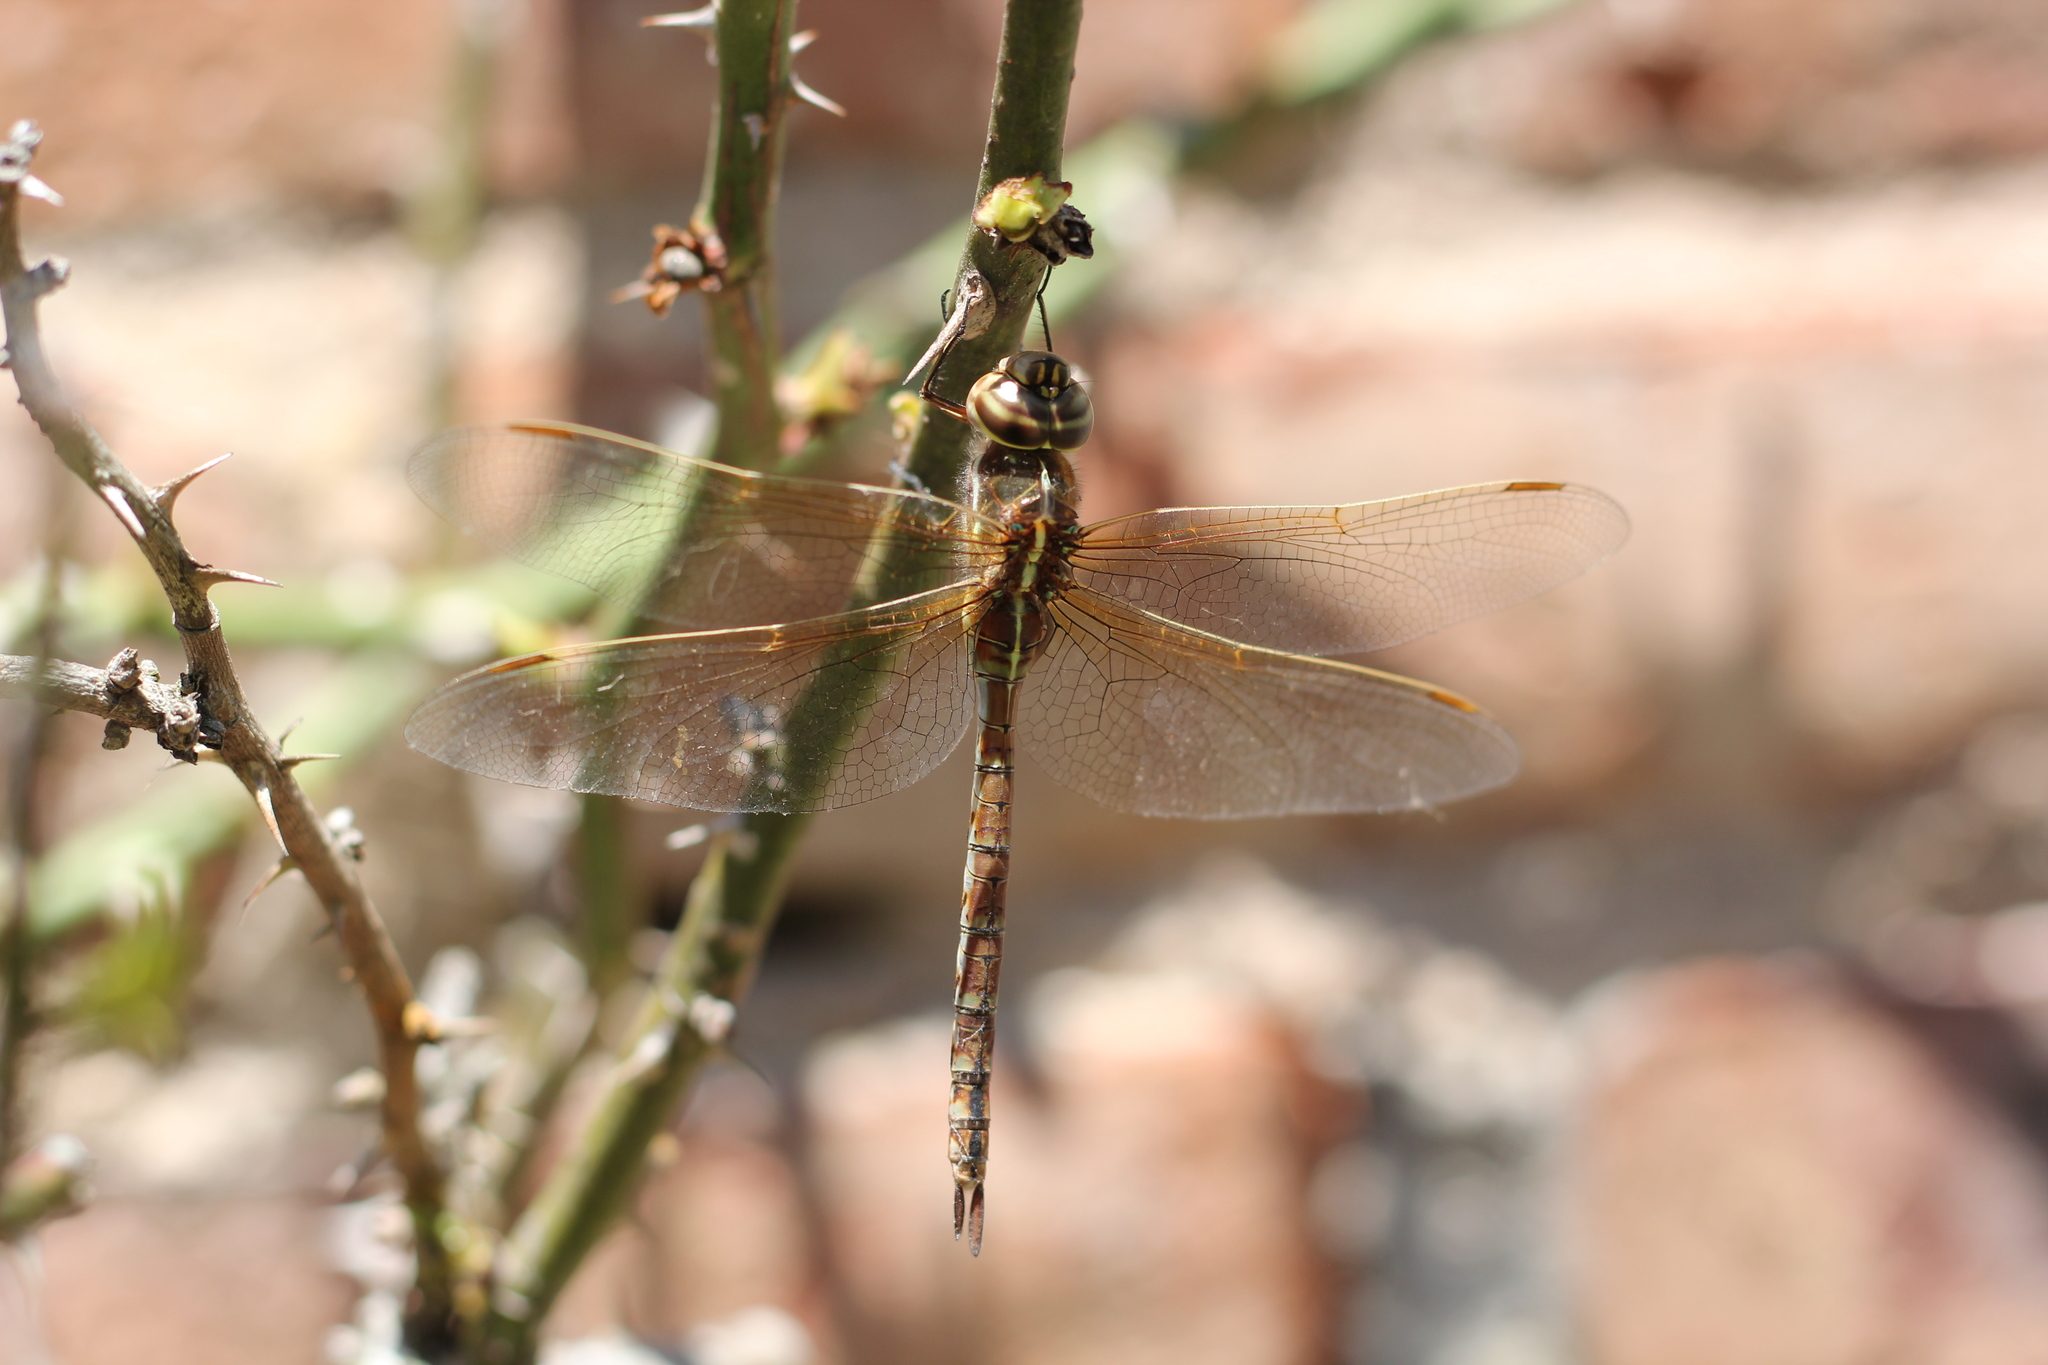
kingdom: Animalia
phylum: Arthropoda
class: Insecta
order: Odonata
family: Aeshnidae
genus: Rhionaeschna
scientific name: Rhionaeschna bonariensis
